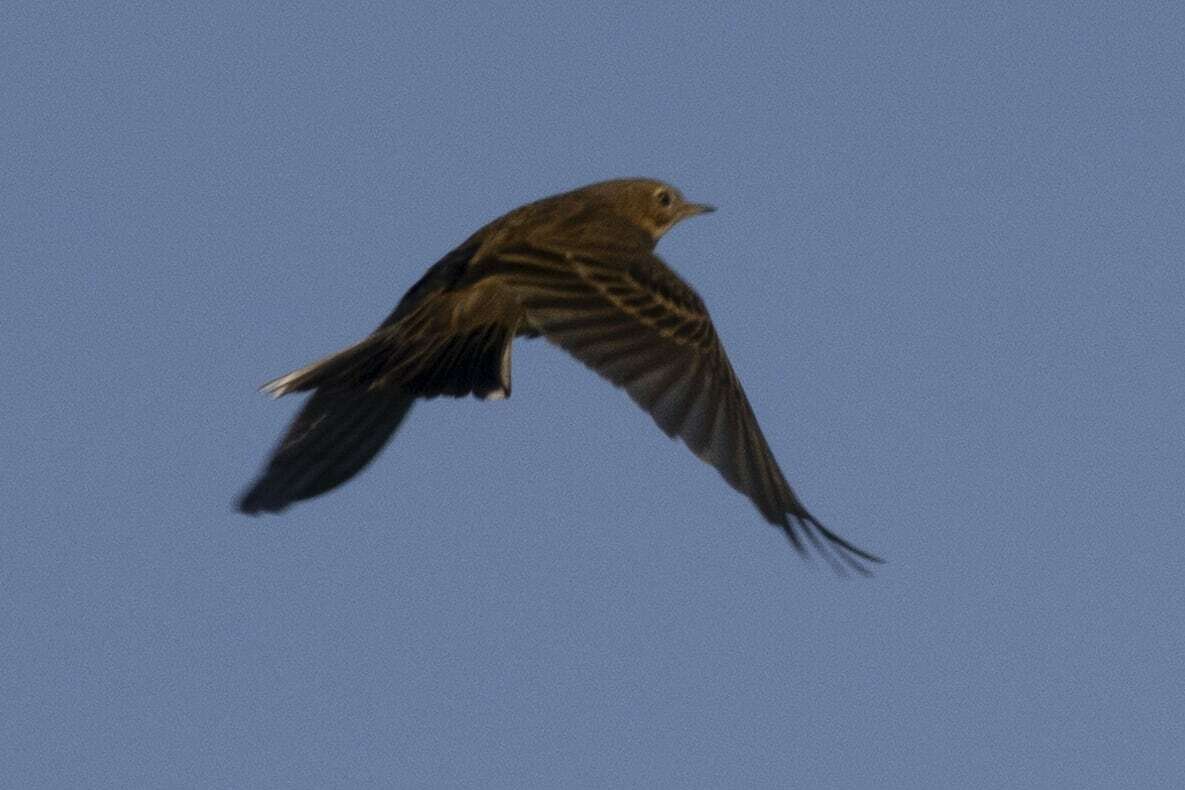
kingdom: Animalia
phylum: Chordata
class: Aves
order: Passeriformes
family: Motacillidae
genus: Anthus
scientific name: Anthus pratensis
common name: Meadow pipit
